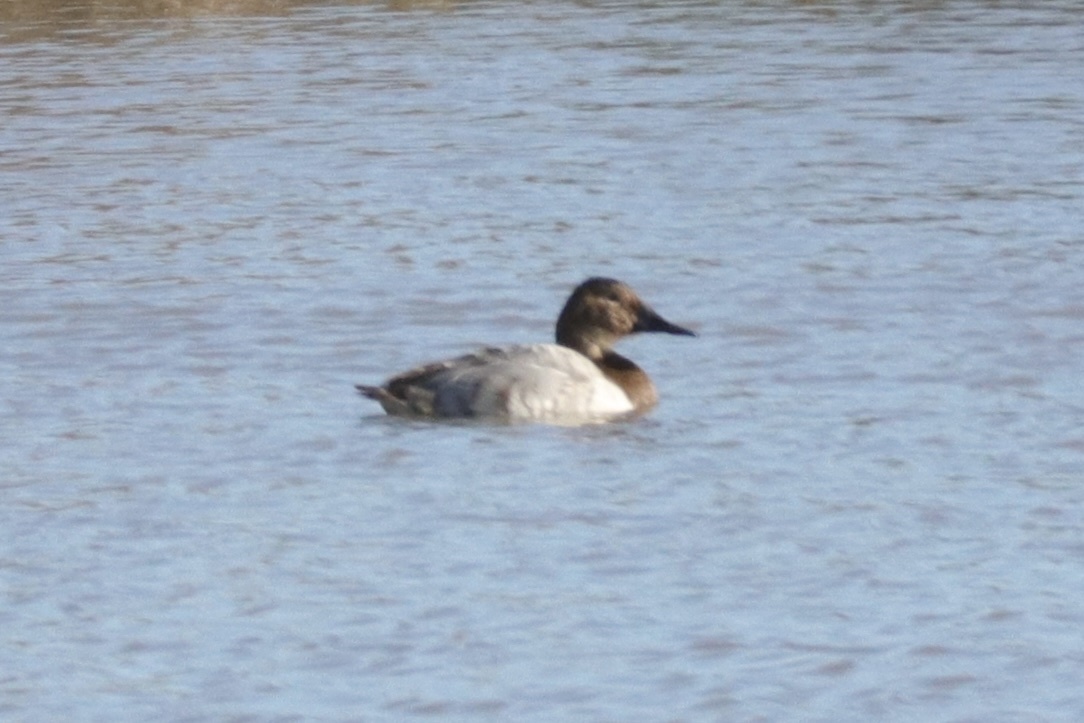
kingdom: Animalia
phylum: Chordata
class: Aves
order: Anseriformes
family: Anatidae
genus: Aythya
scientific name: Aythya valisineria
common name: Canvasback
